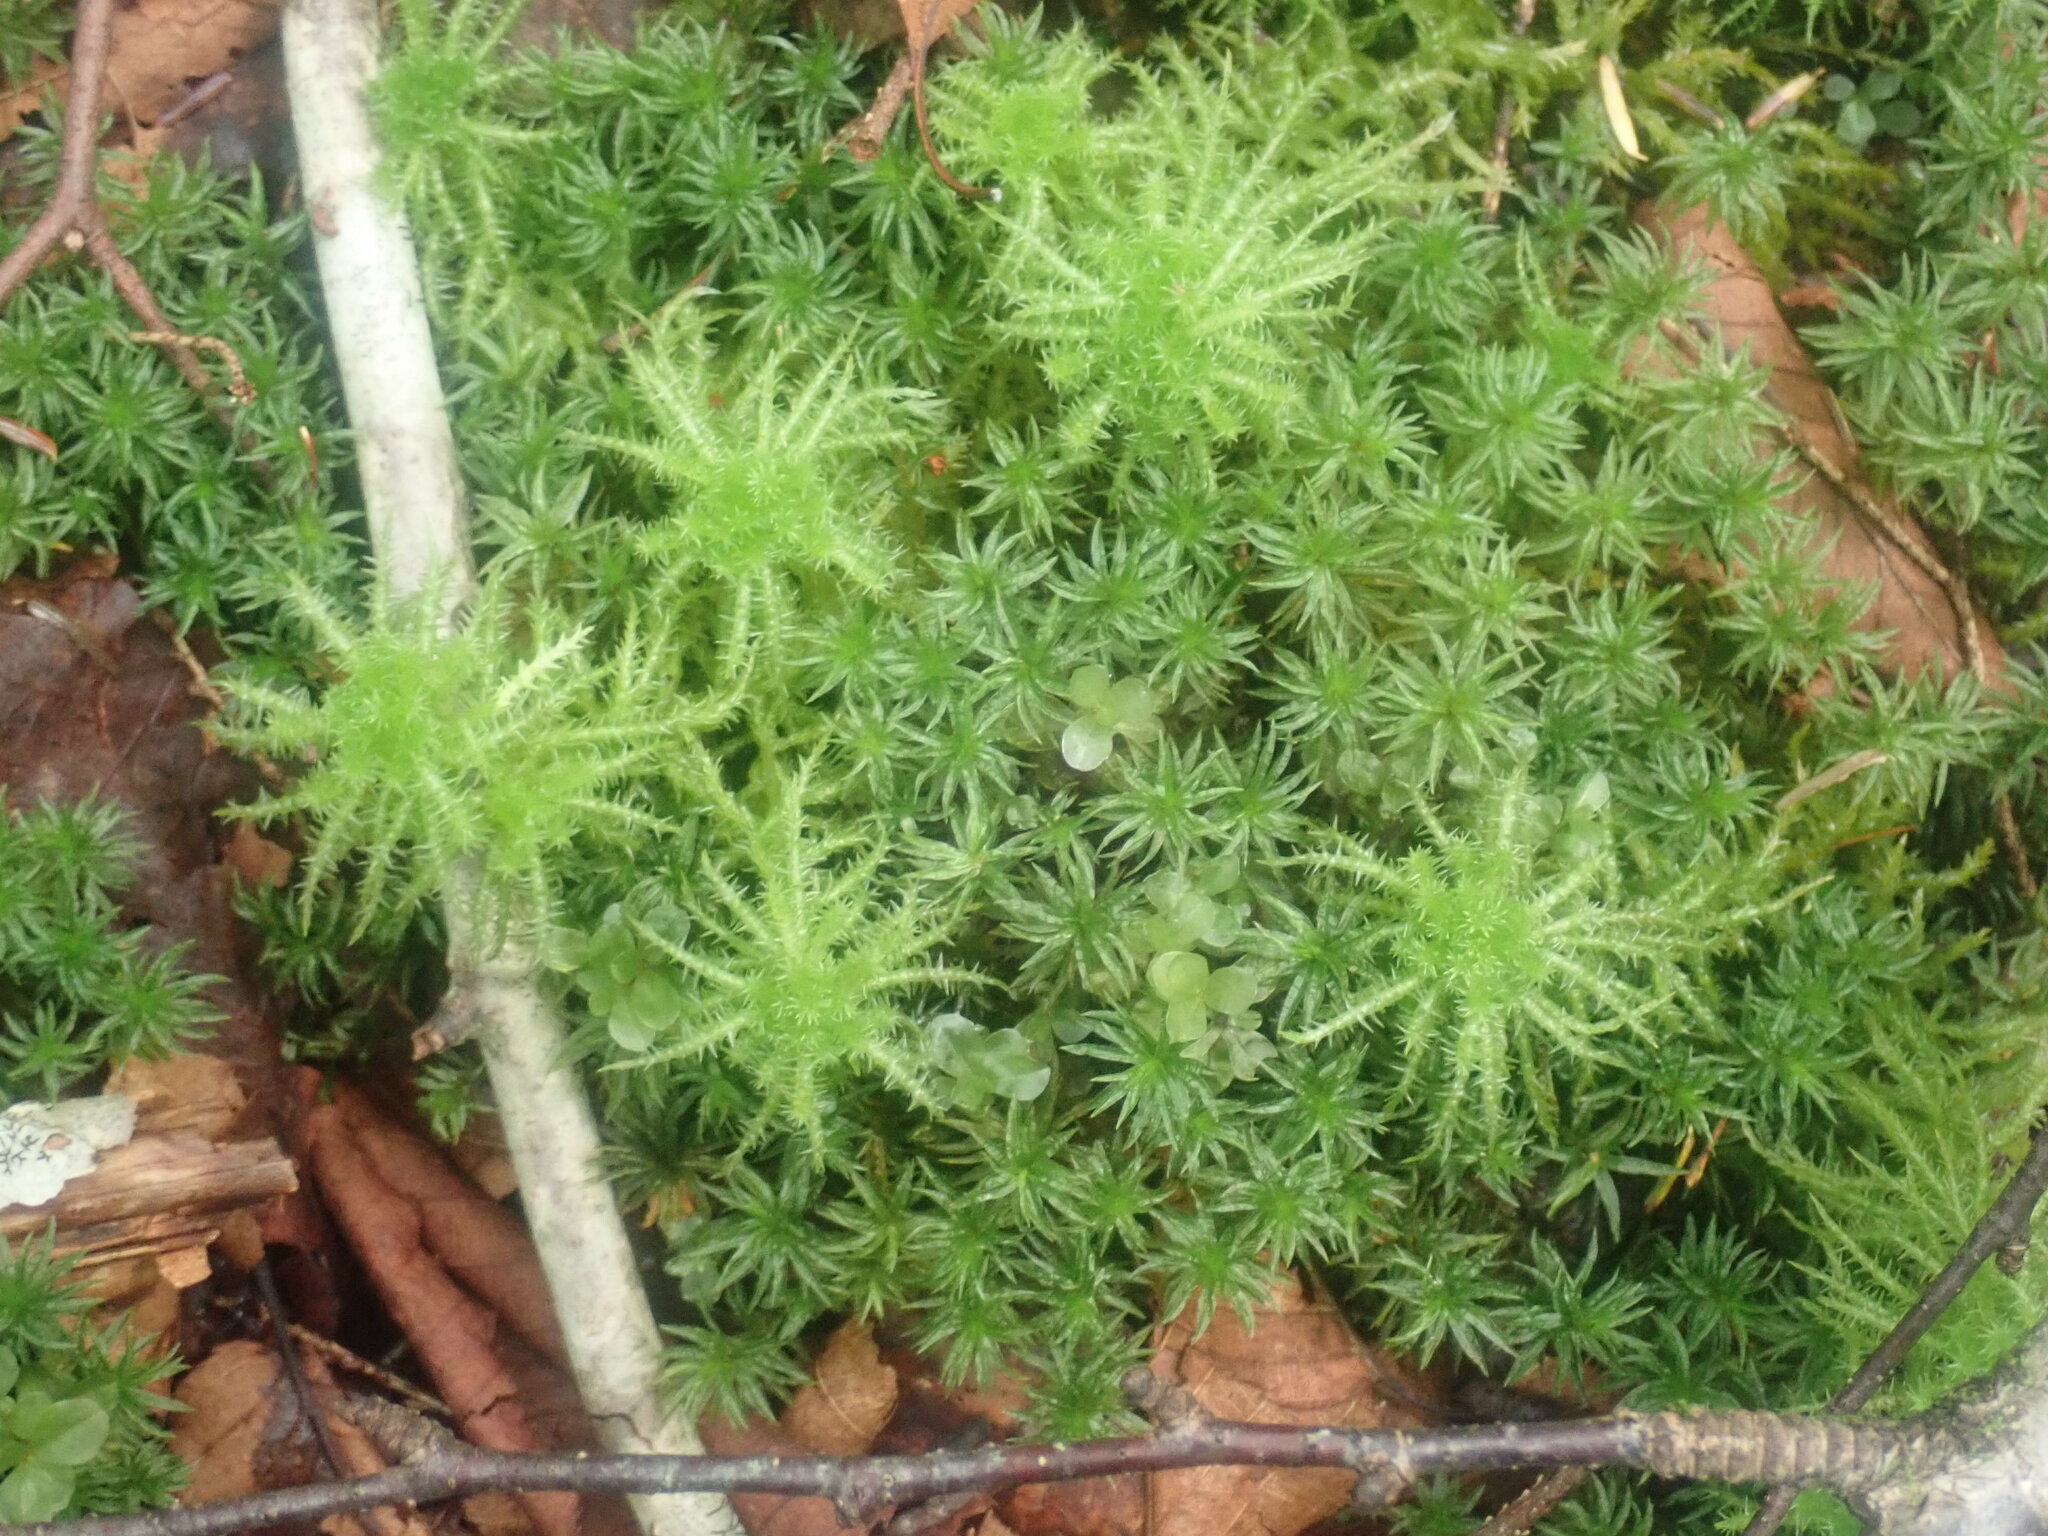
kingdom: Plantae
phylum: Bryophyta
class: Sphagnopsida
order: Sphagnales
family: Sphagnaceae
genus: Sphagnum
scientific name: Sphagnum squarrosum
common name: Shaggy peat moss
